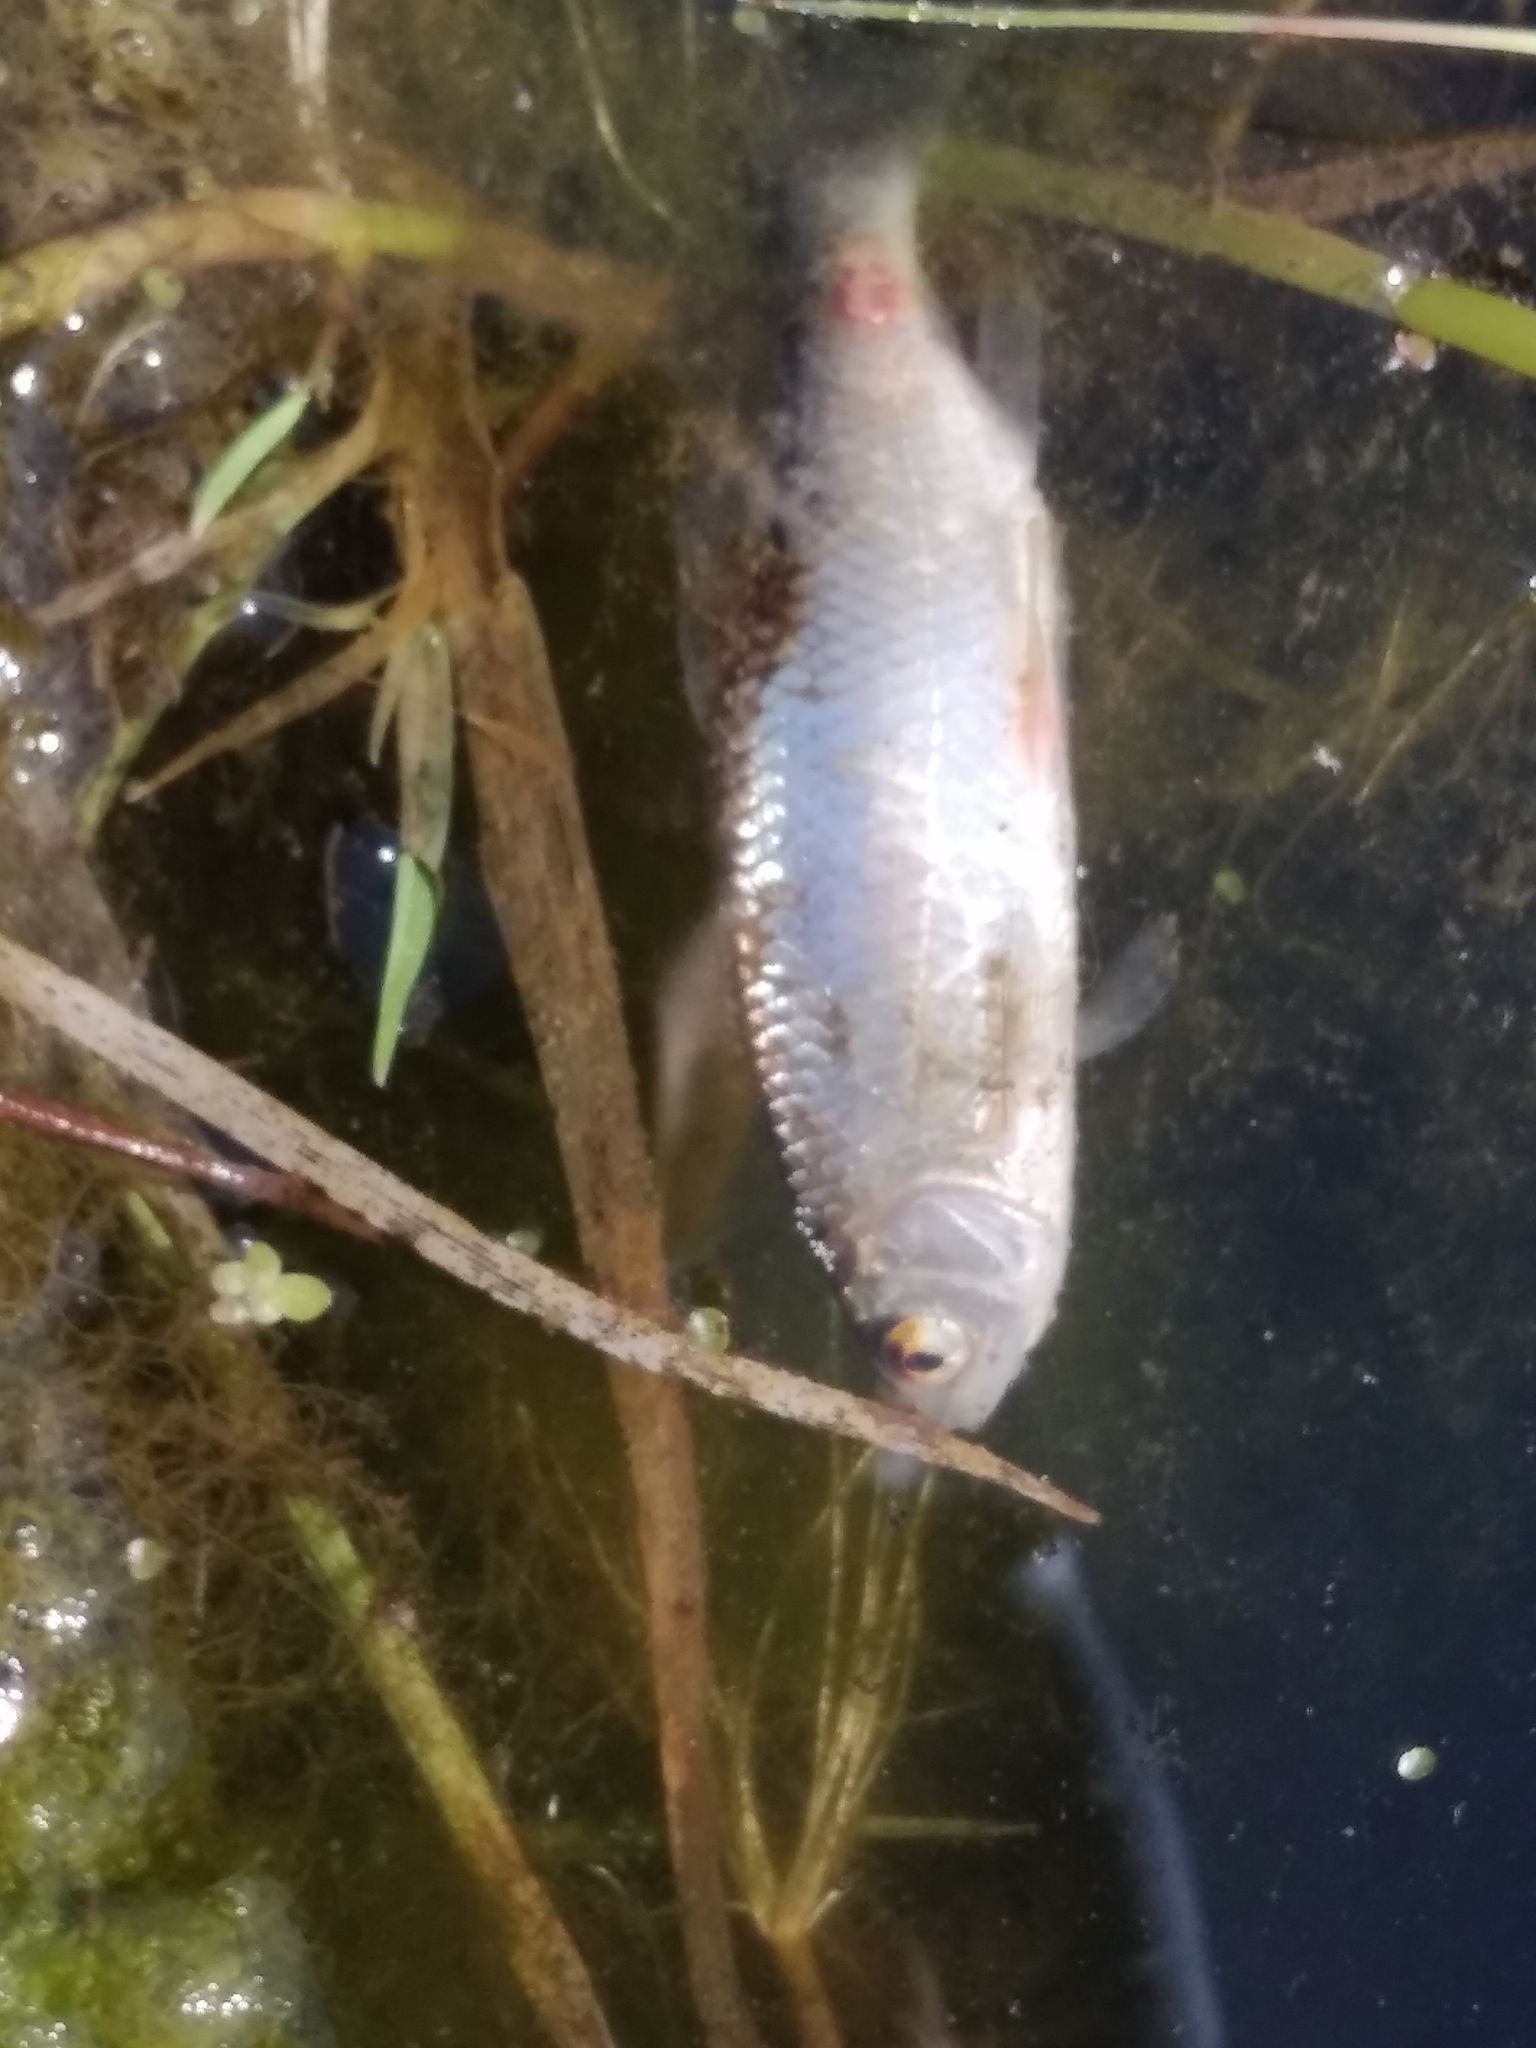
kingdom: Animalia
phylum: Chordata
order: Cypriniformes
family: Cyprinidae
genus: Rutilus
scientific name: Rutilus rutilus
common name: Roach
